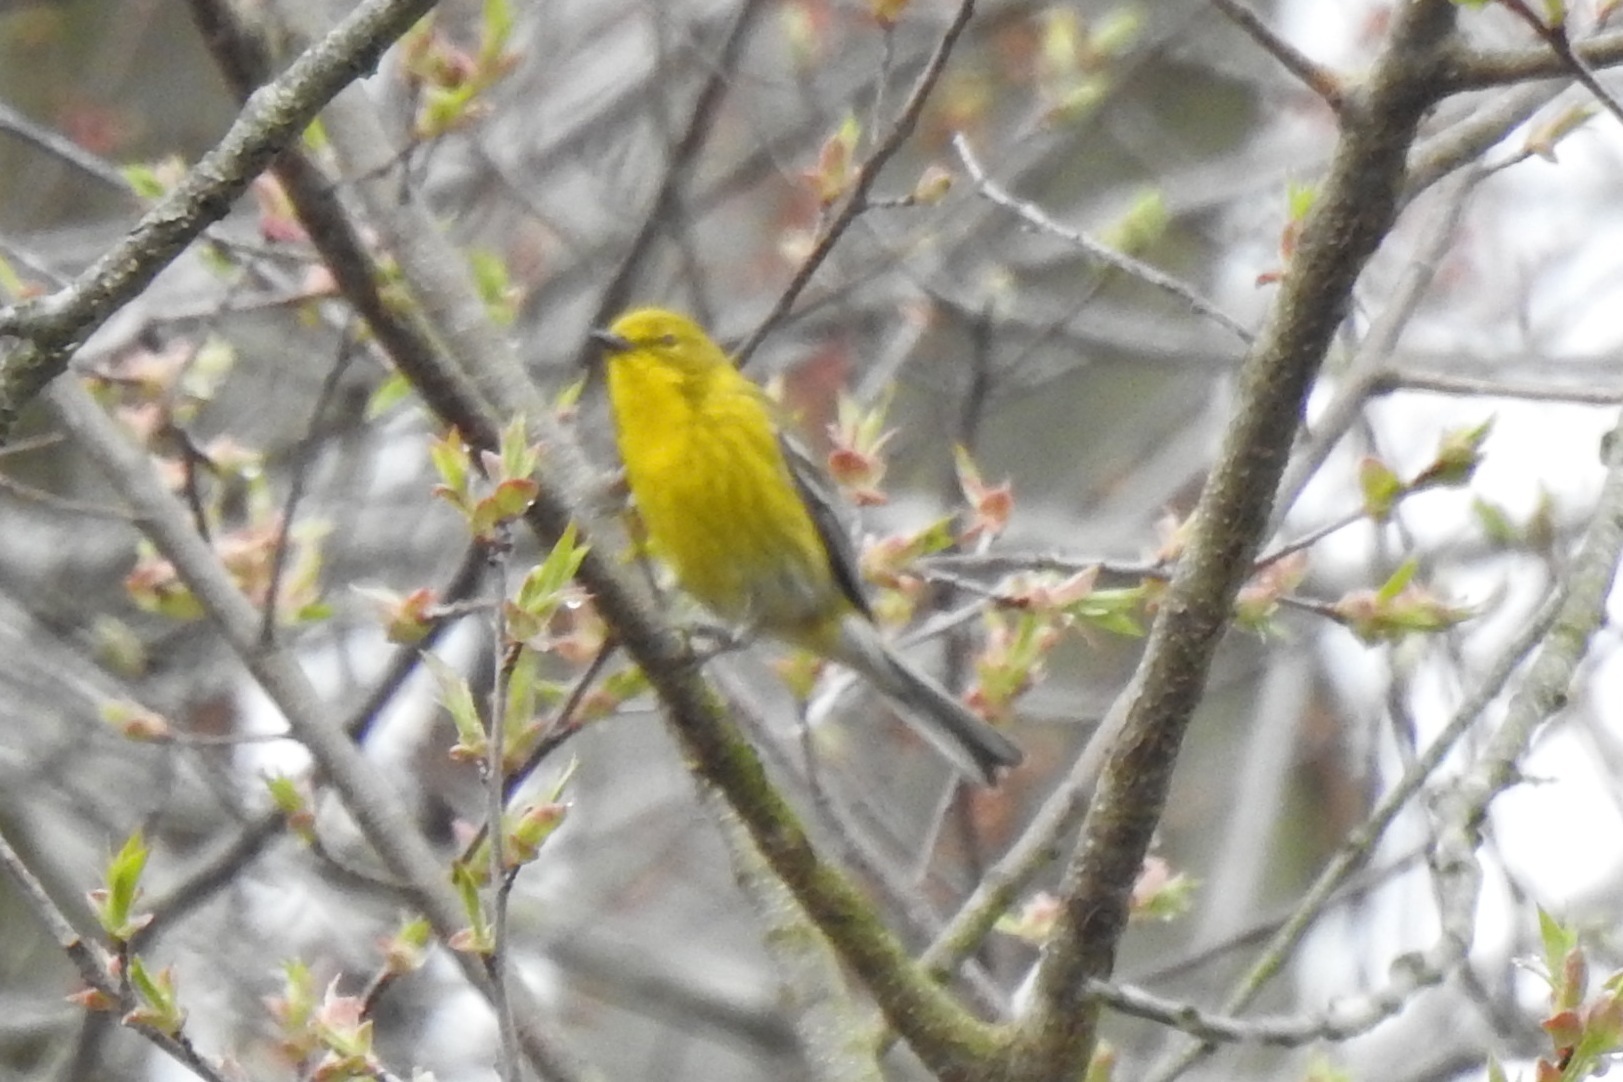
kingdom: Animalia
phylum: Chordata
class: Aves
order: Passeriformes
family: Parulidae
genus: Setophaga
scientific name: Setophaga pinus
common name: Pine warbler
